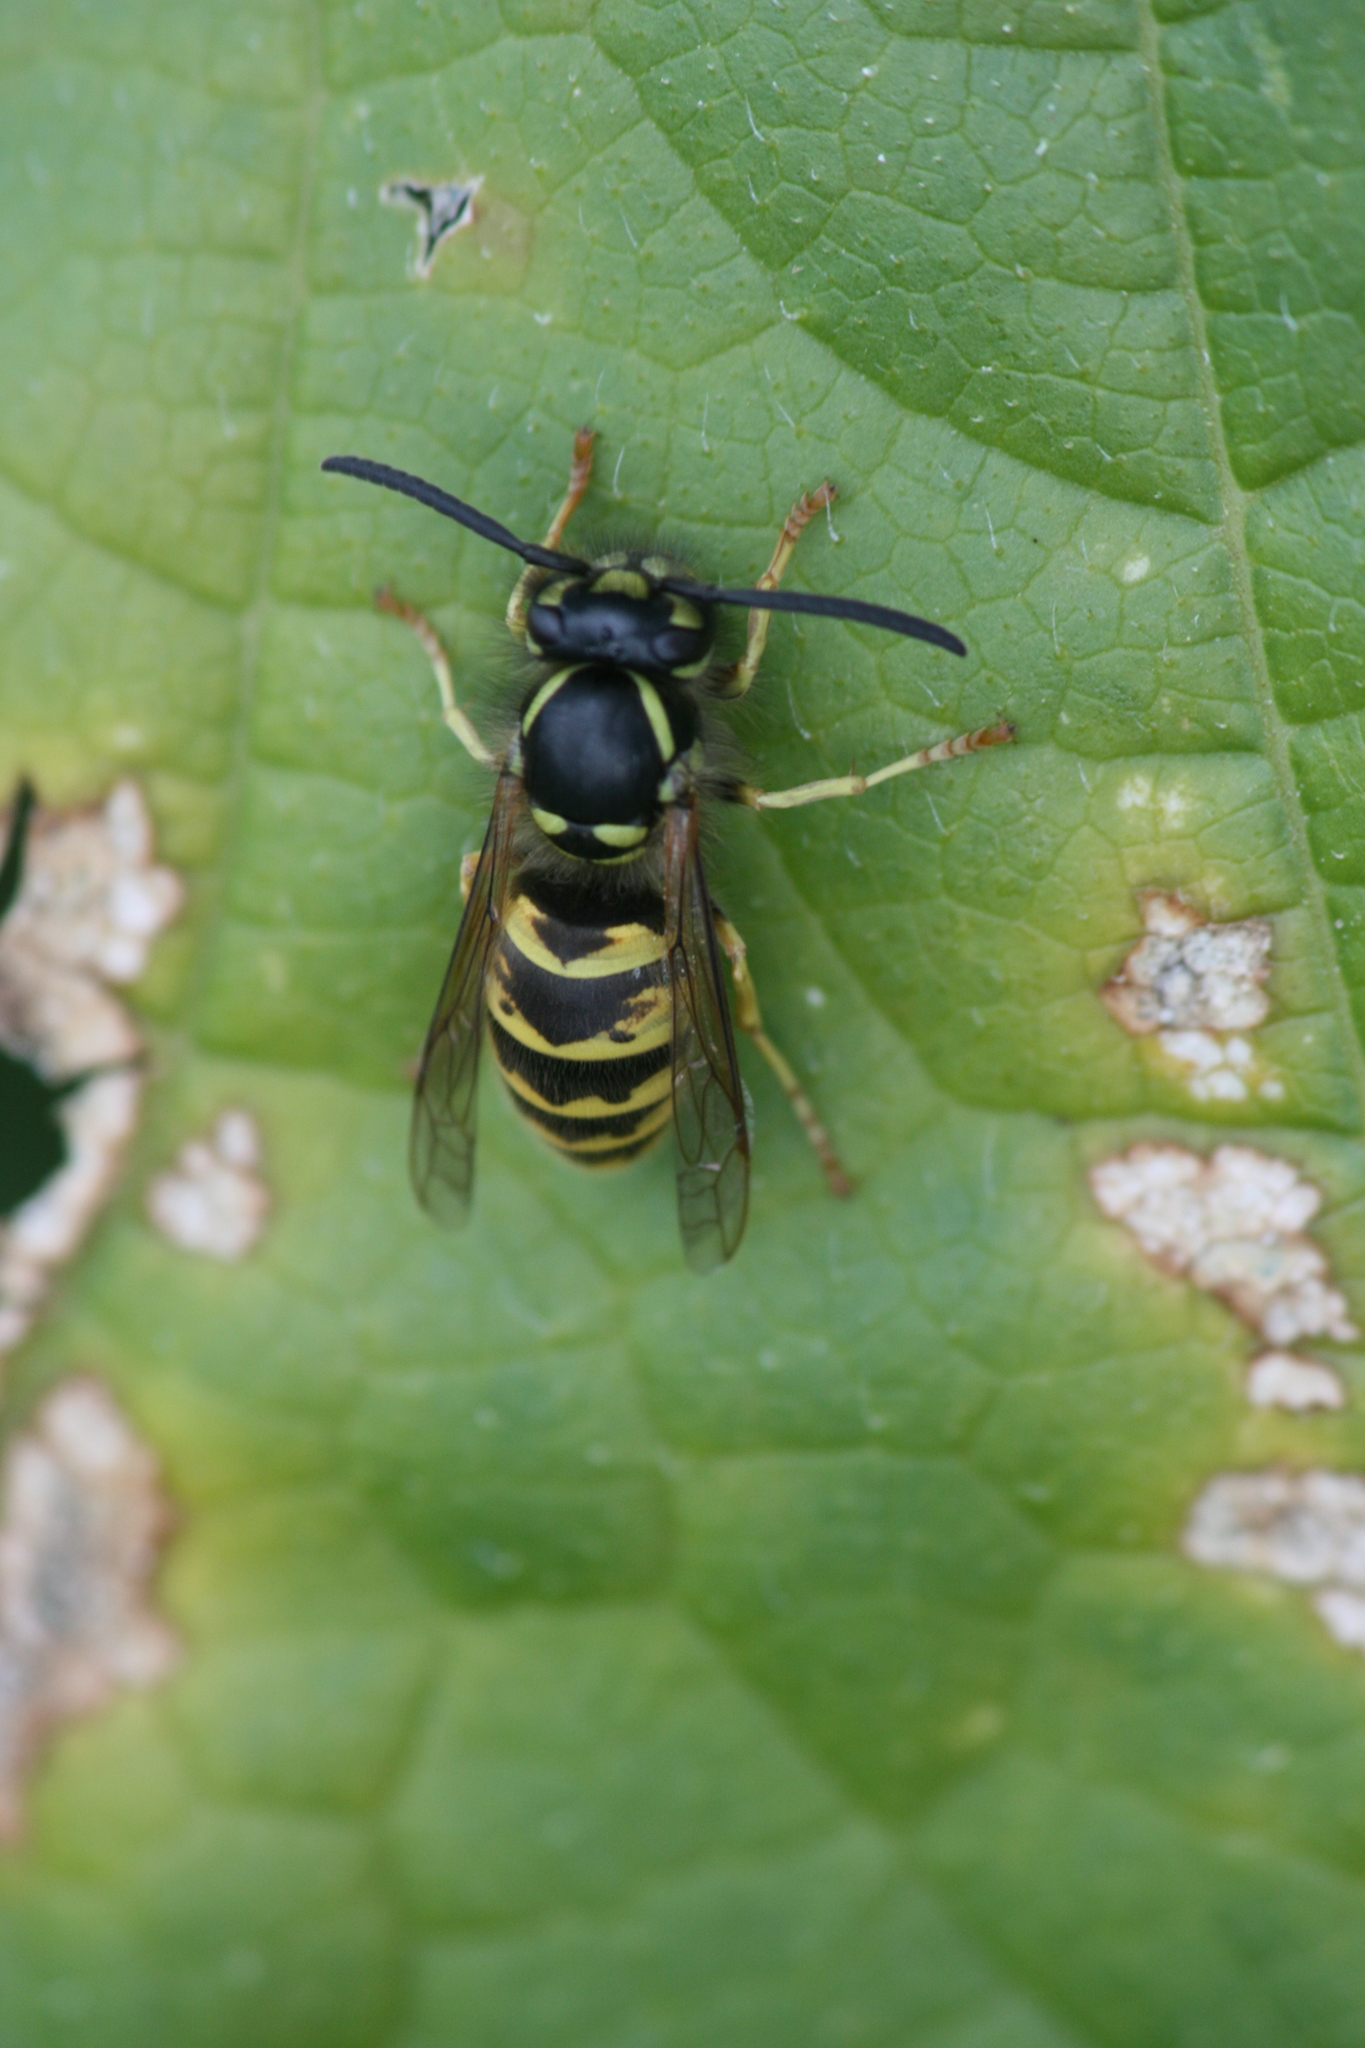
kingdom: Animalia
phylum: Arthropoda
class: Insecta
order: Hymenoptera
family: Vespidae
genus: Vespula
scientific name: Vespula vulgaris
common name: Common wasp
